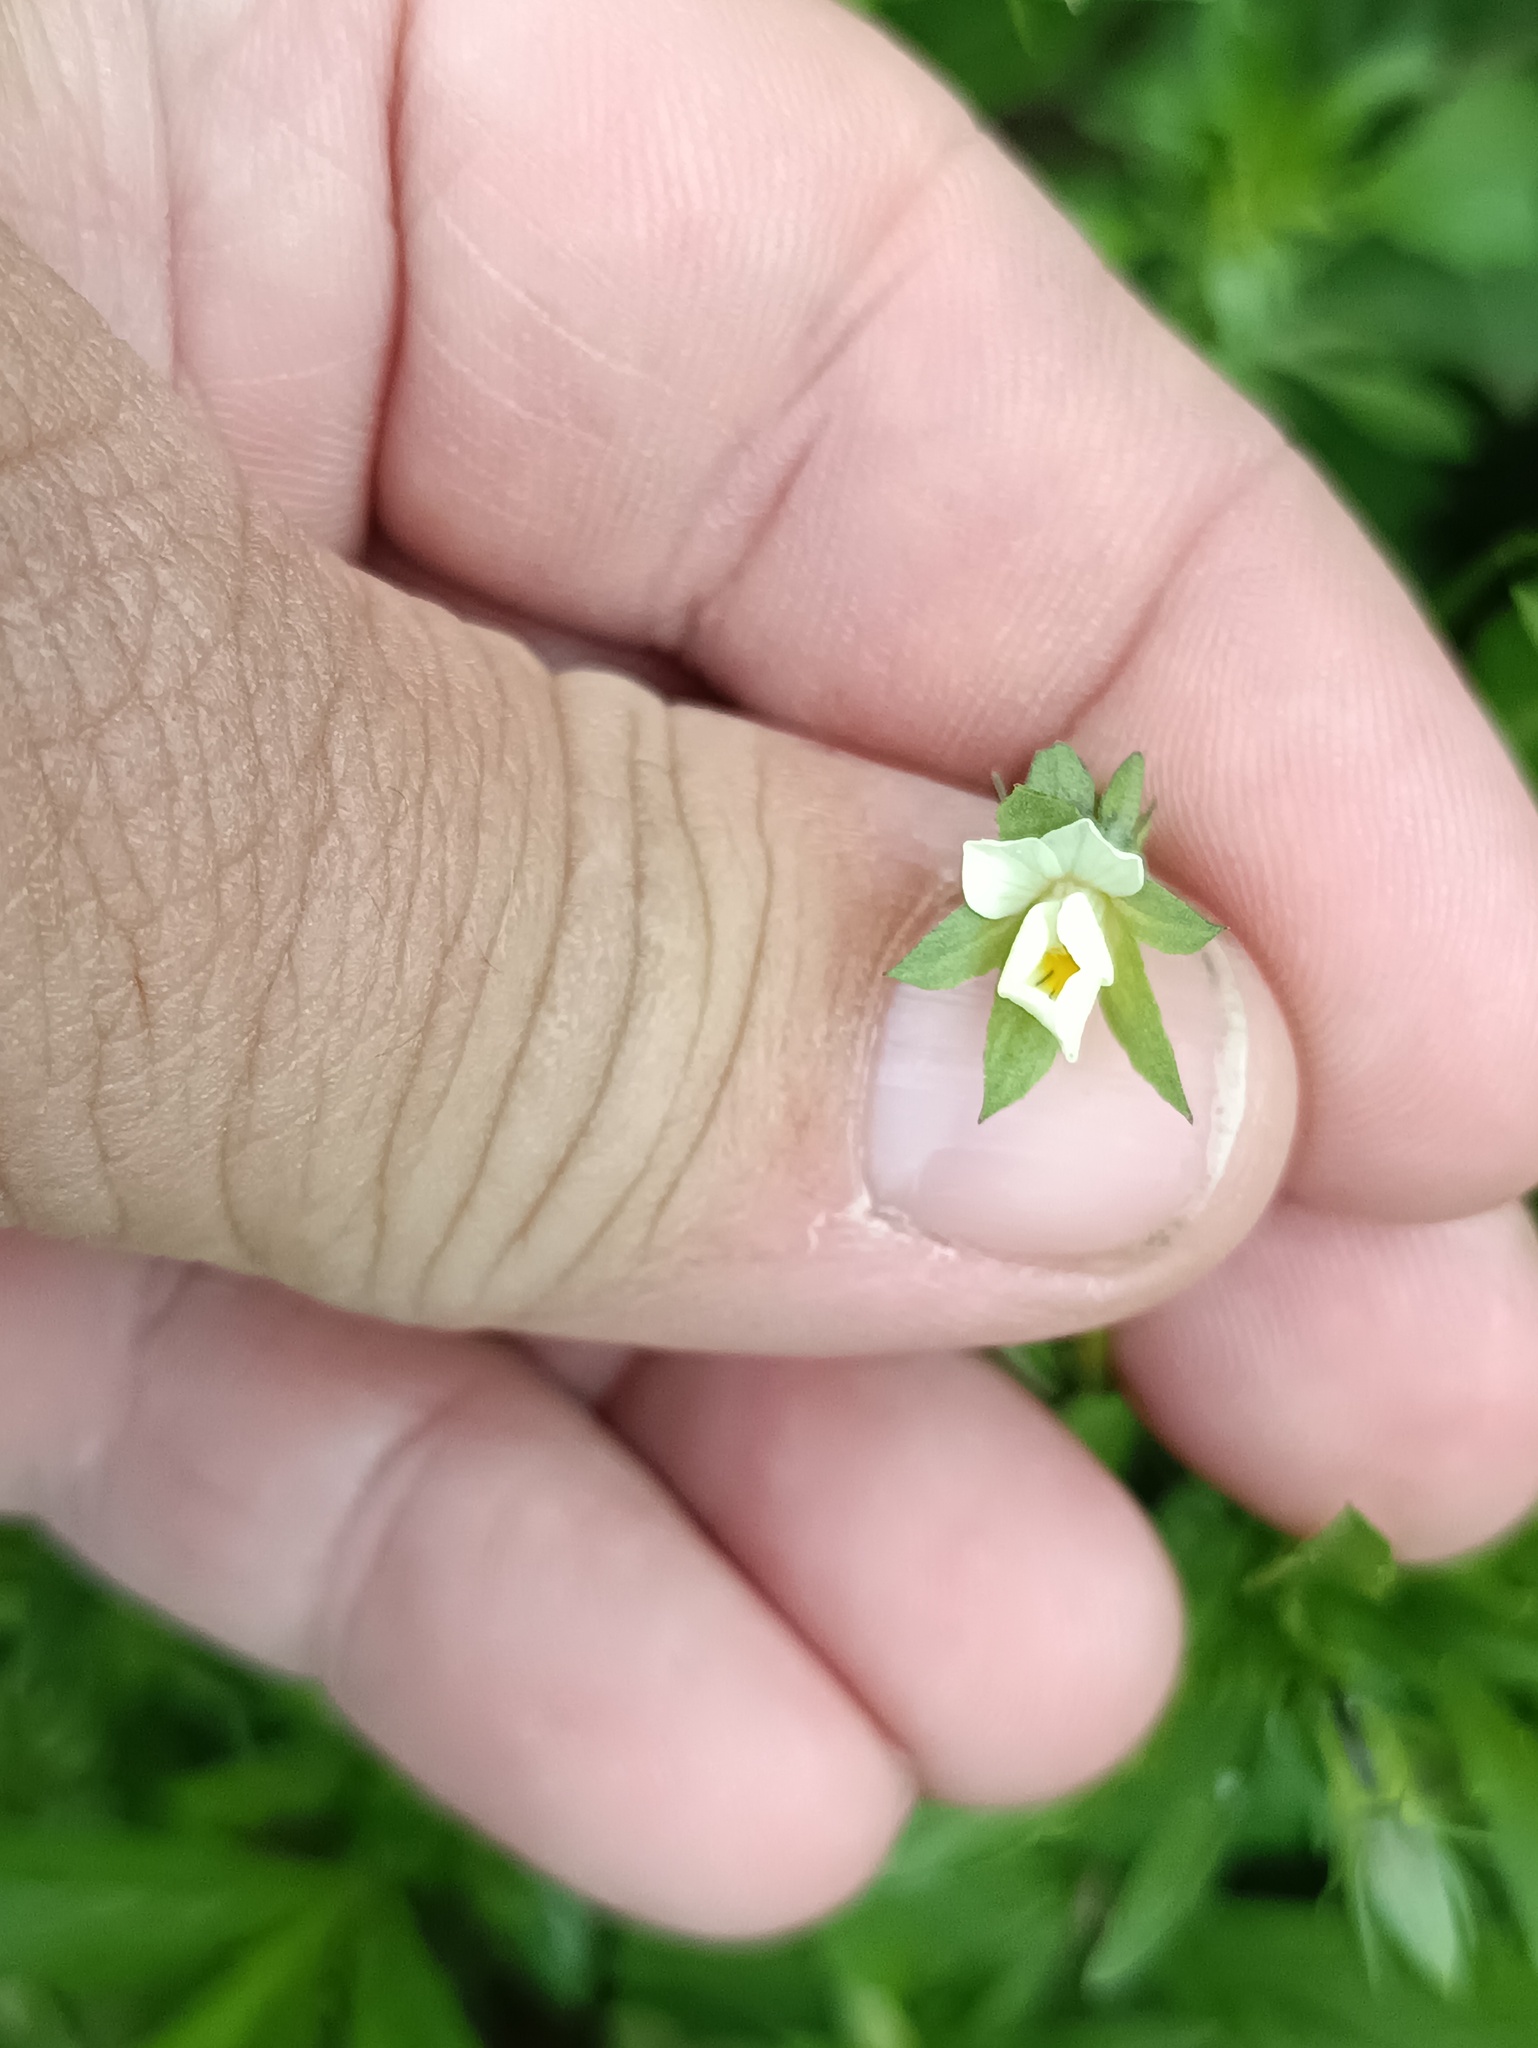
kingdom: Plantae
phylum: Tracheophyta
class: Magnoliopsida
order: Malpighiales
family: Violaceae
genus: Viola
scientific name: Viola arvensis
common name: Field pansy
